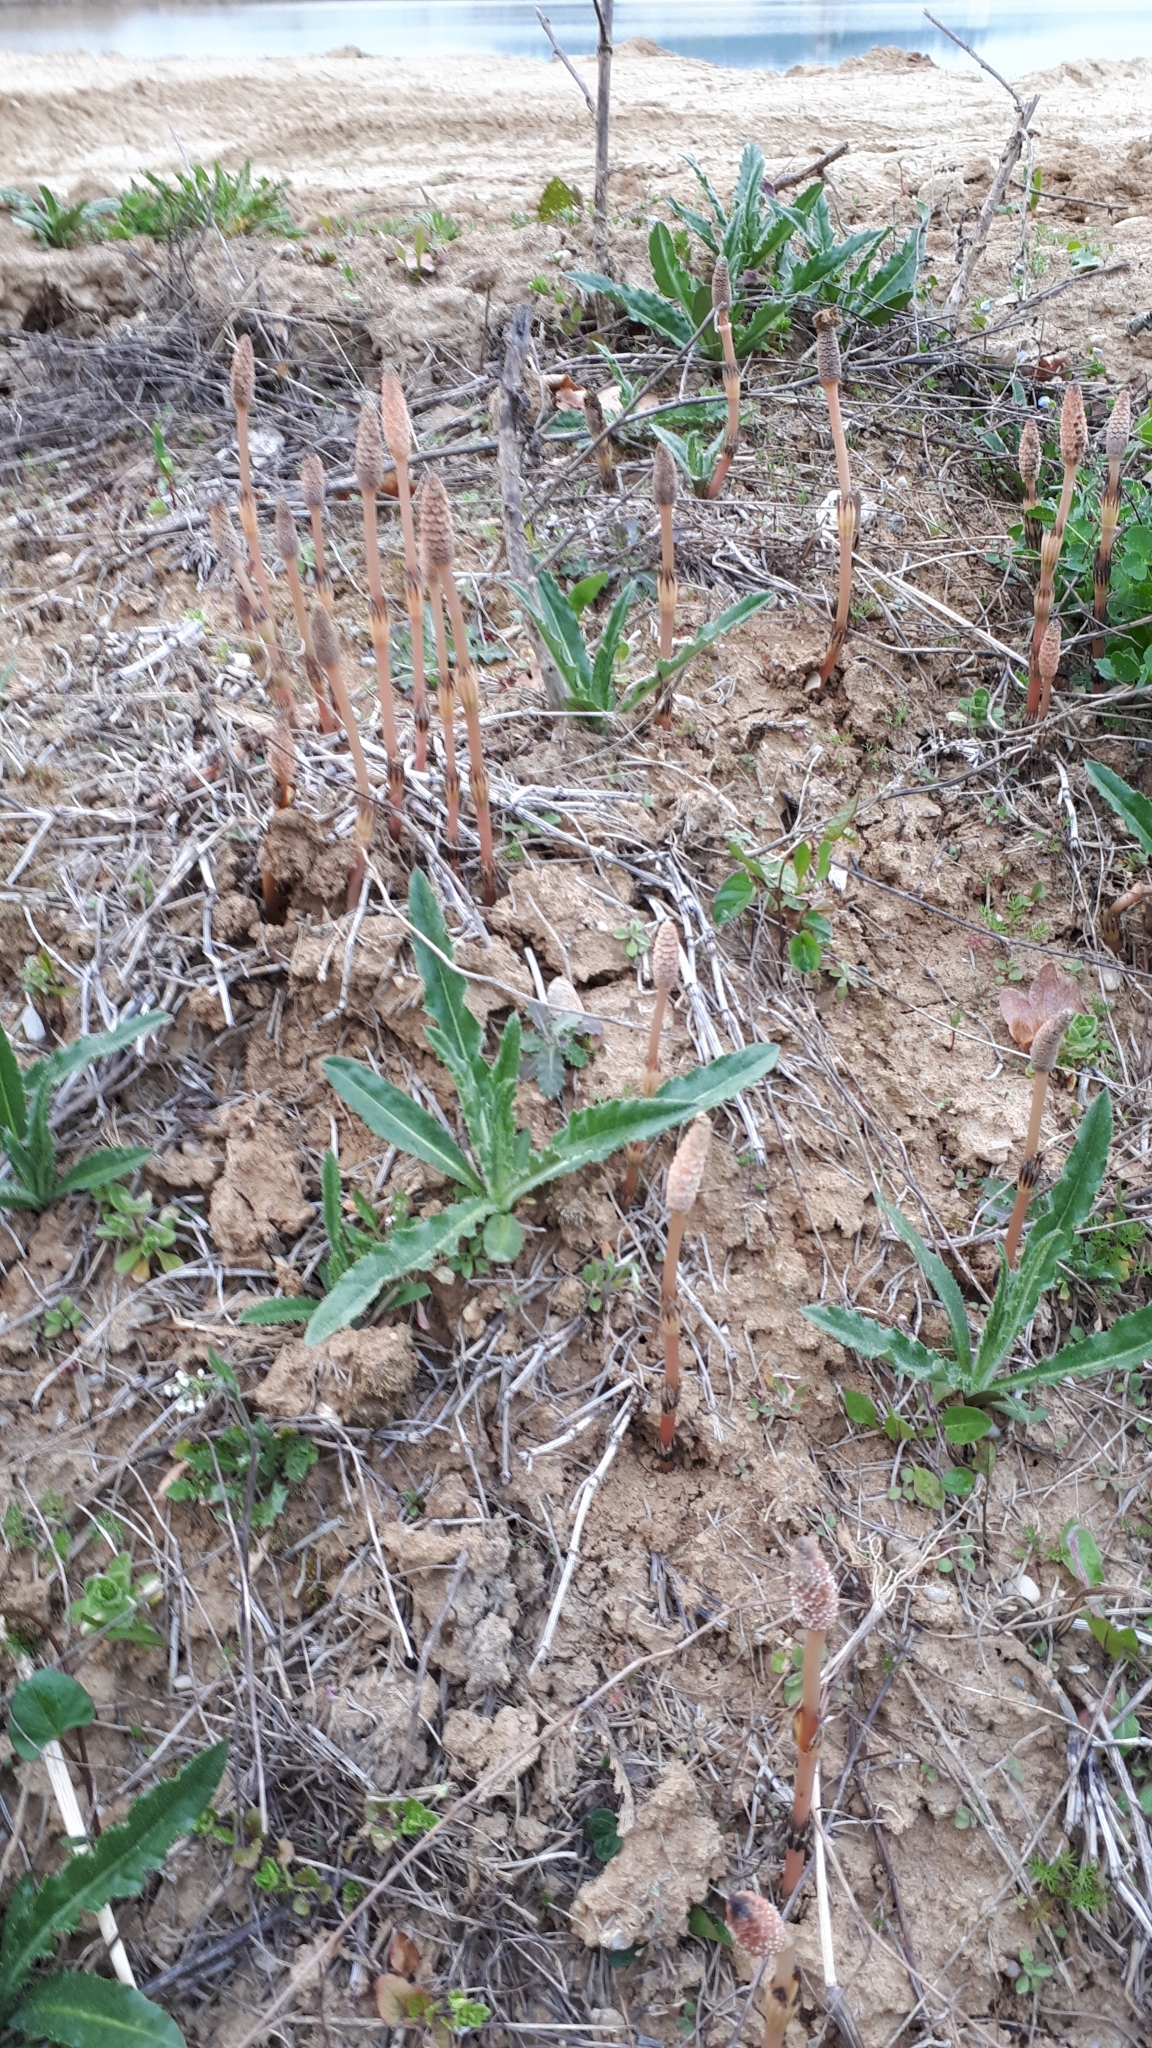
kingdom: Plantae
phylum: Tracheophyta
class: Polypodiopsida
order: Equisetales
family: Equisetaceae
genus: Equisetum
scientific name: Equisetum arvense
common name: Field horsetail
